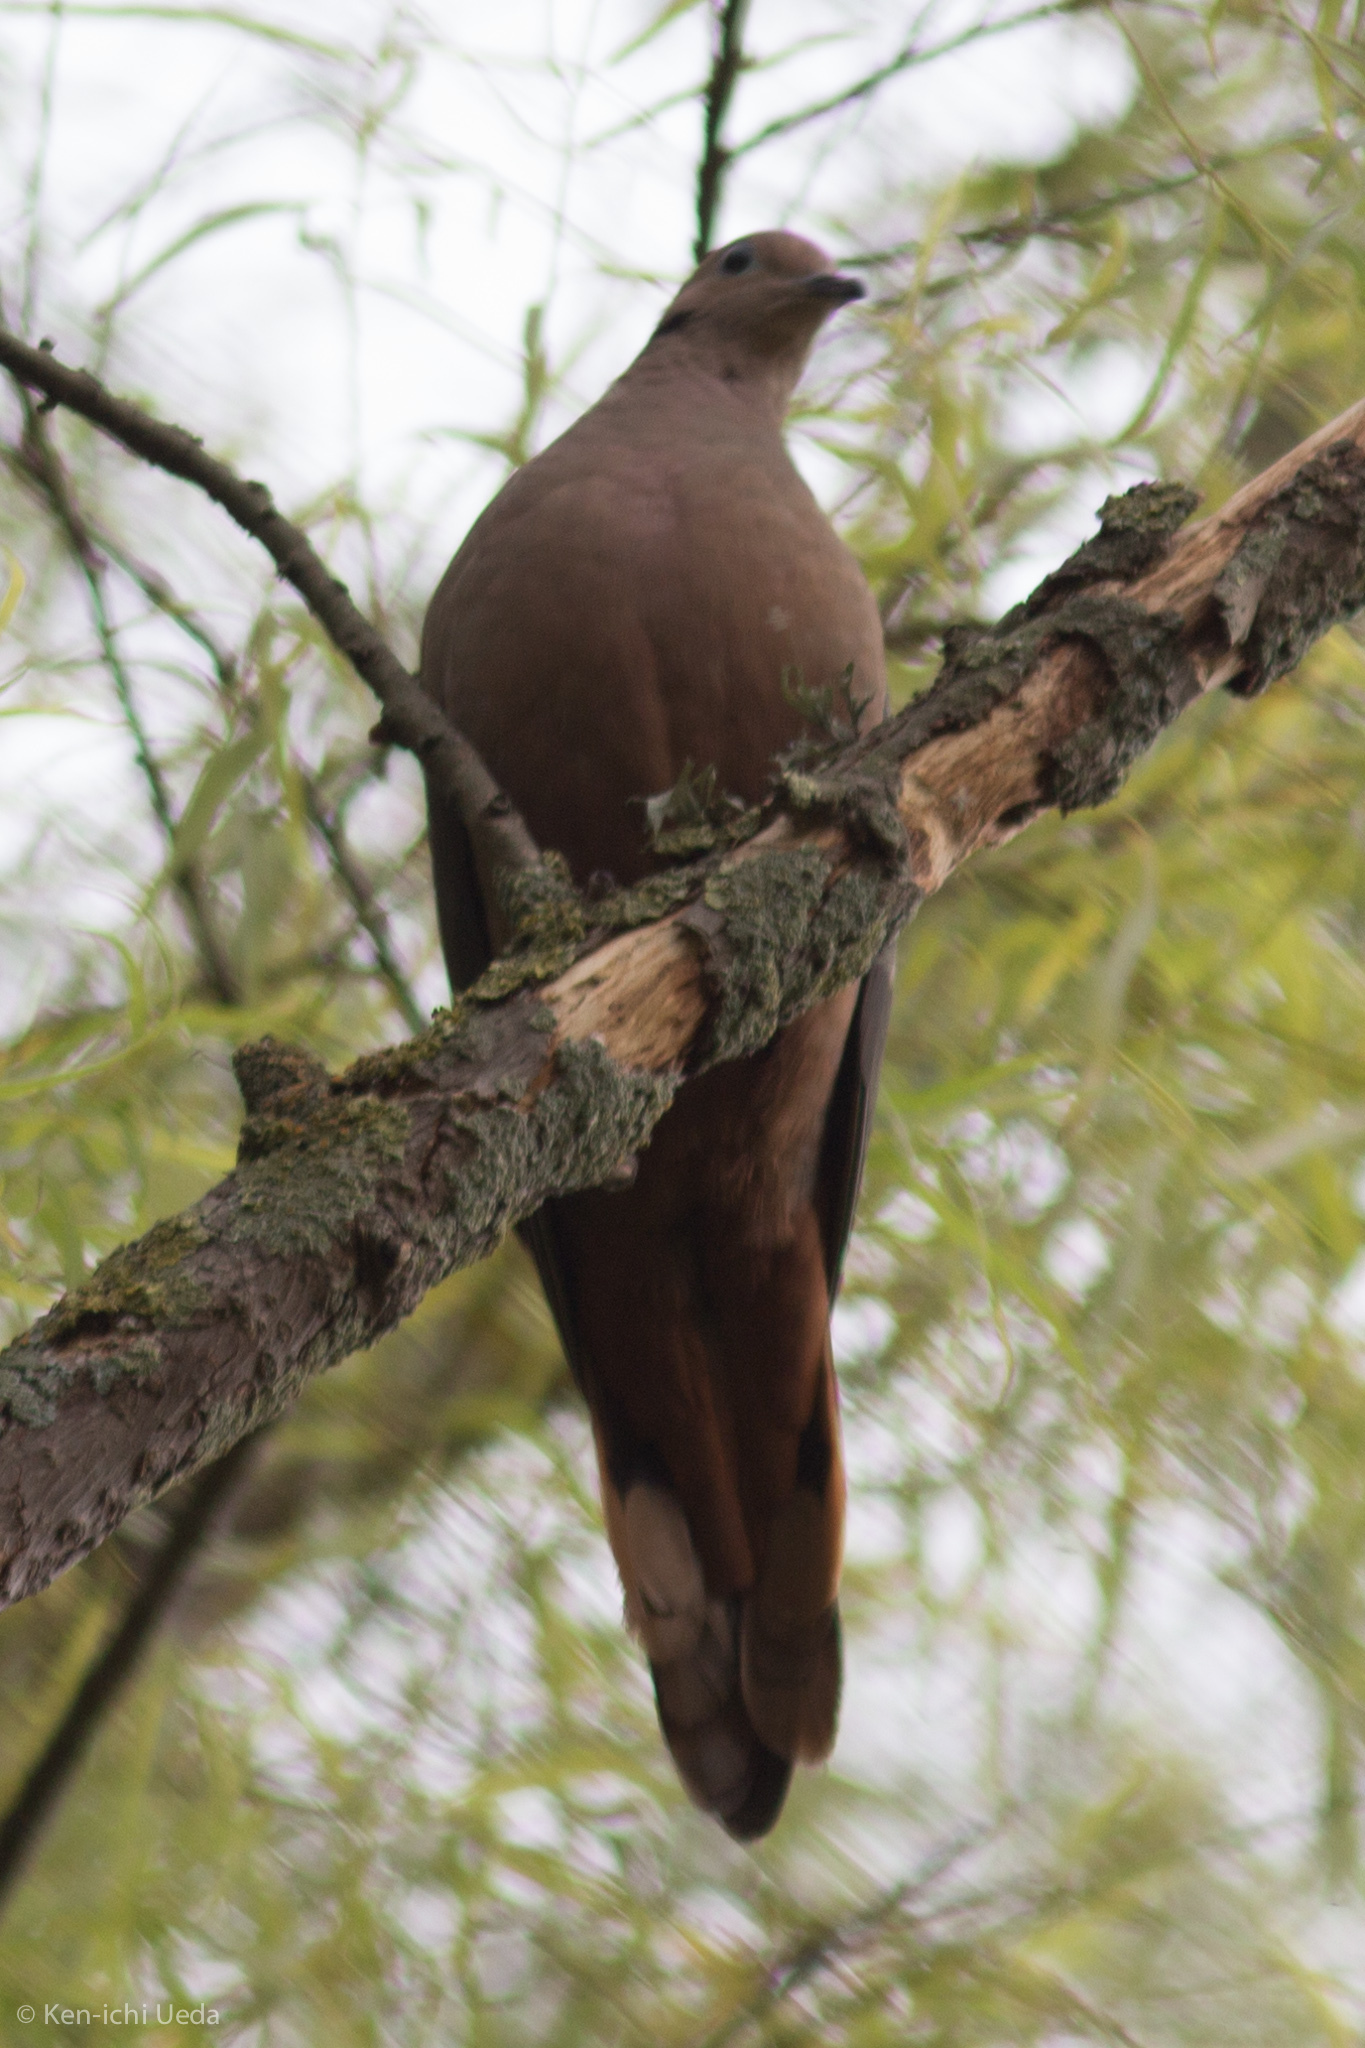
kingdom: Animalia
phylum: Chordata
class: Aves
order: Columbiformes
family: Columbidae
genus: Zenaida
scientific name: Zenaida auriculata
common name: Eared dove
